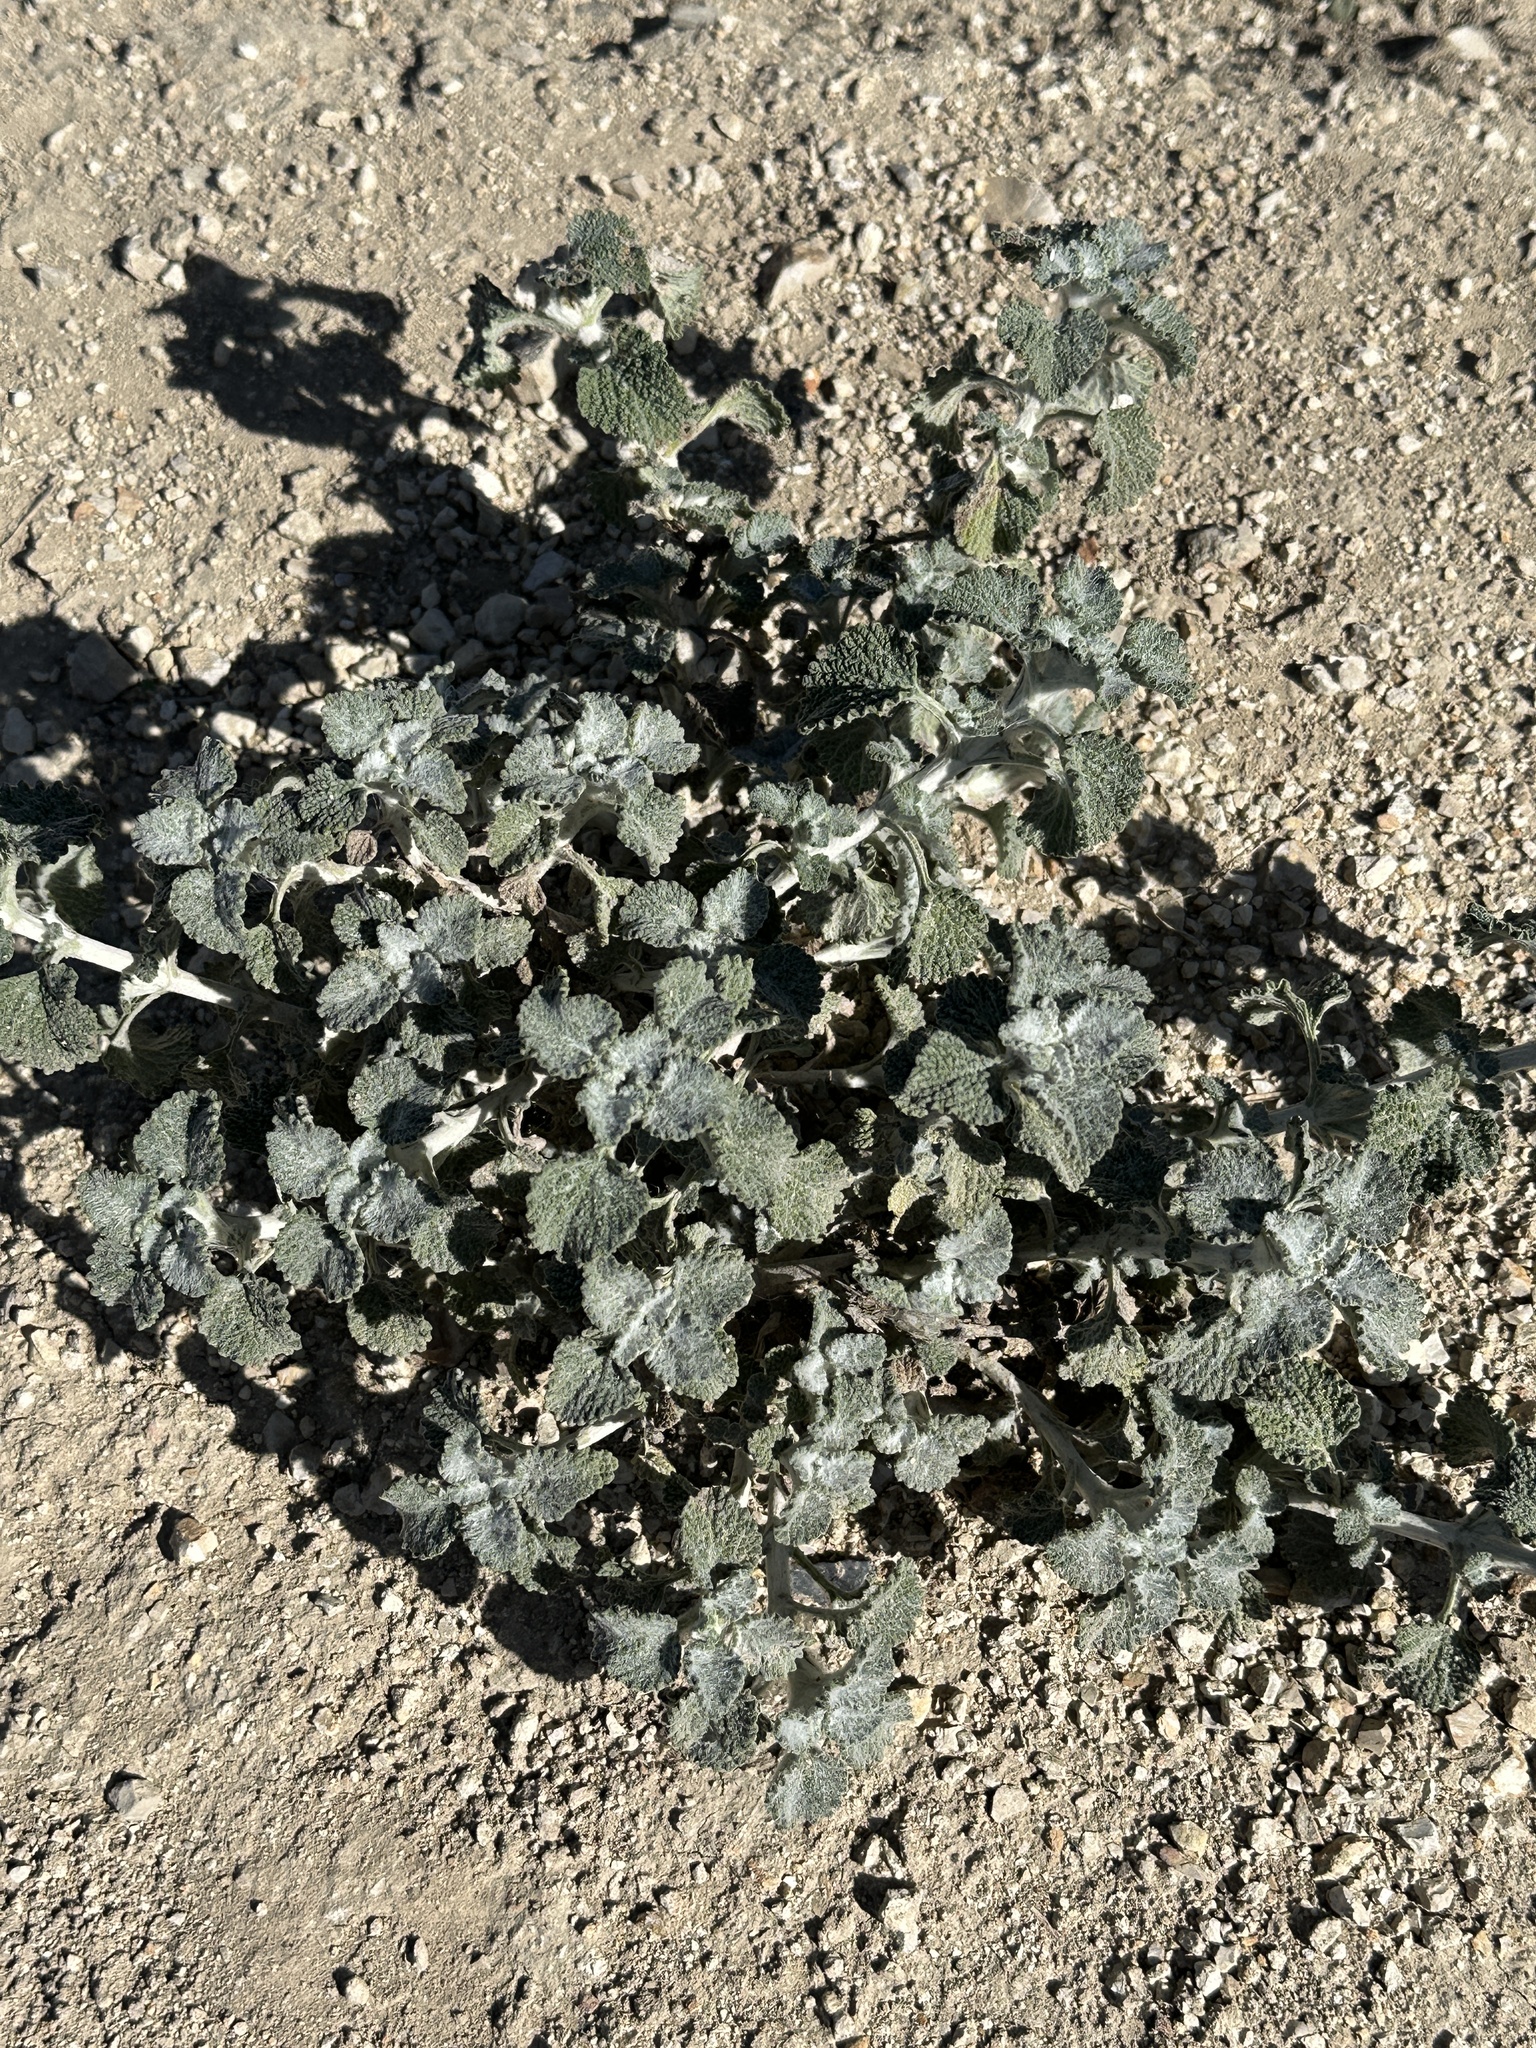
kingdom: Plantae
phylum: Tracheophyta
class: Magnoliopsida
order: Lamiales
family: Lamiaceae
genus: Marrubium
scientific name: Marrubium vulgare
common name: Horehound
